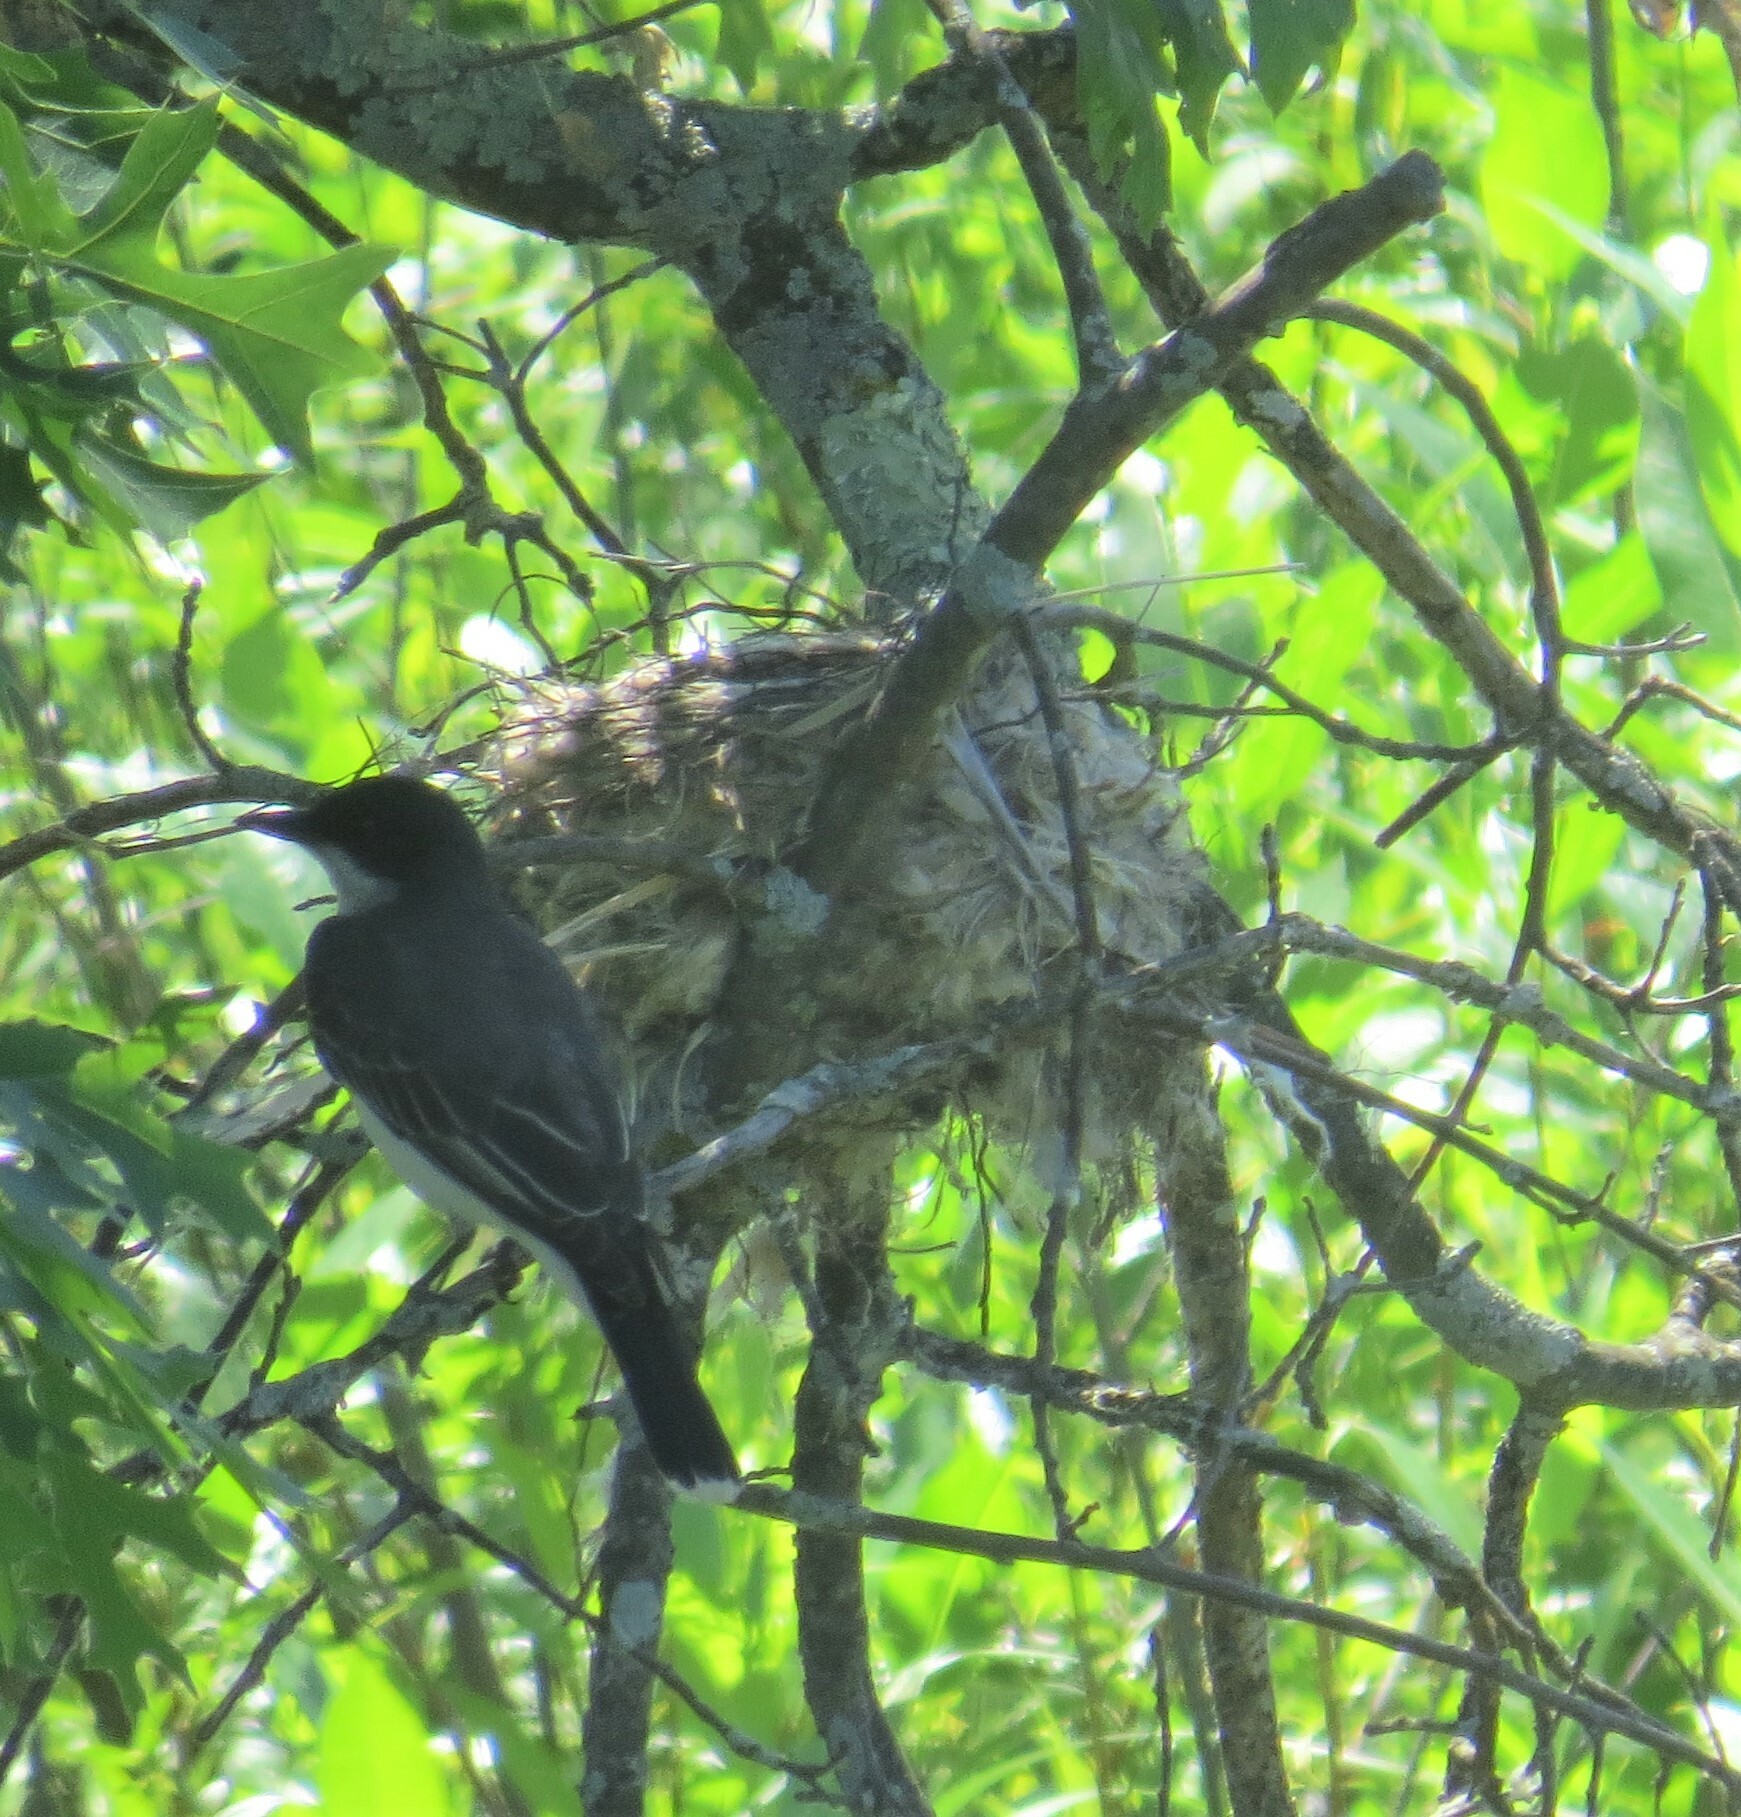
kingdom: Animalia
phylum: Chordata
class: Aves
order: Passeriformes
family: Tyrannidae
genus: Tyrannus
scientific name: Tyrannus tyrannus
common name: Eastern kingbird
